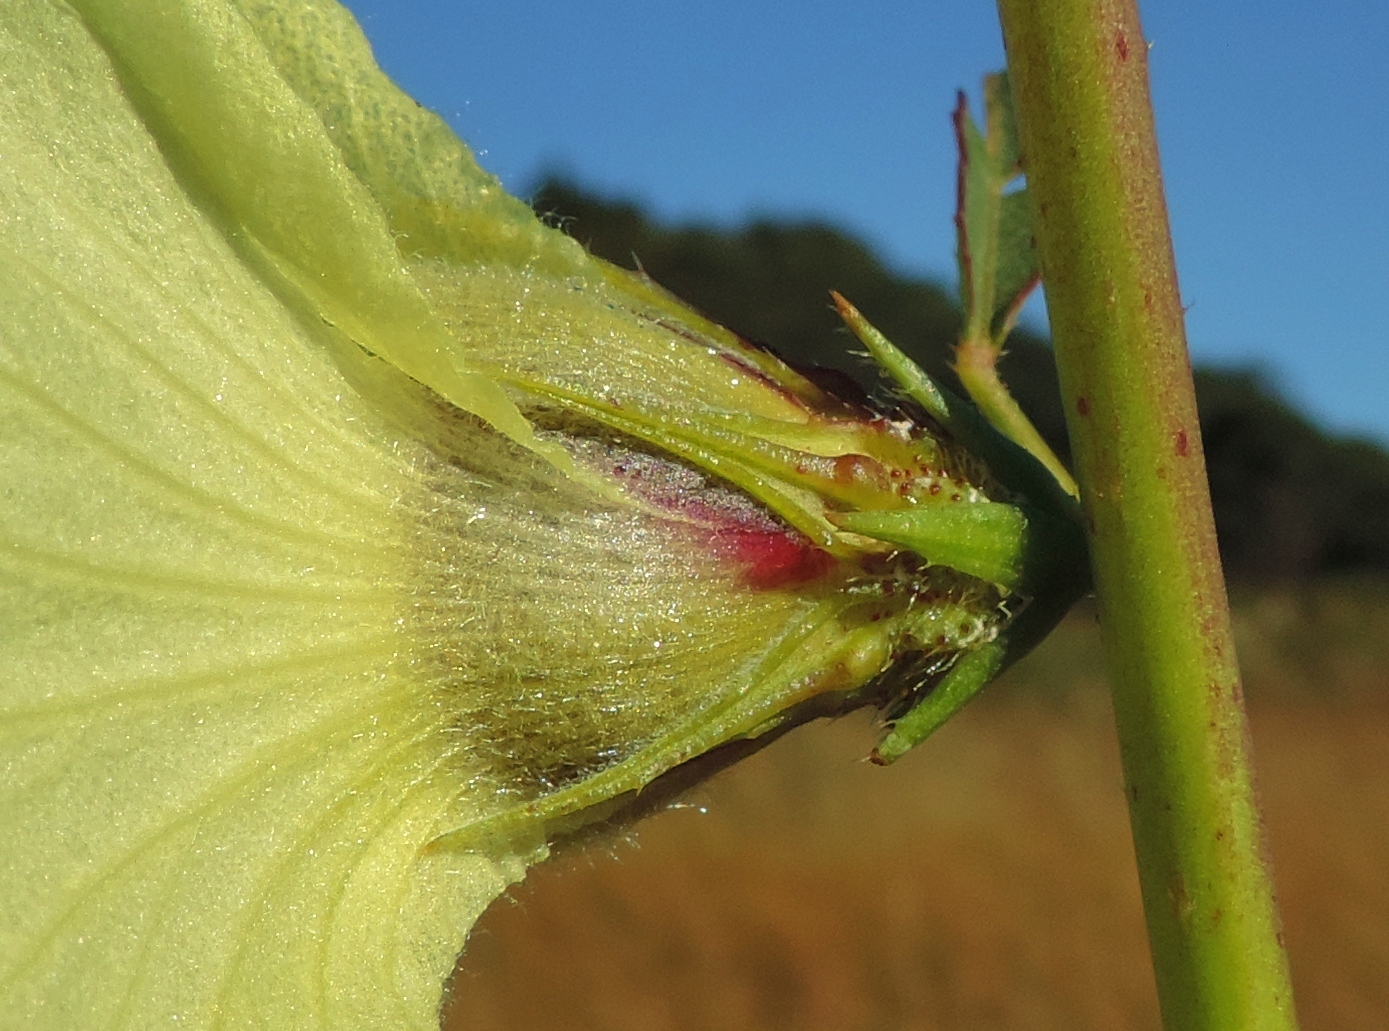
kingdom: Plantae
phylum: Tracheophyta
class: Magnoliopsida
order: Malvales
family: Malvaceae
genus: Hibiscus
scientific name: Hibiscus cannabinus
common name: Brown indianhemp
